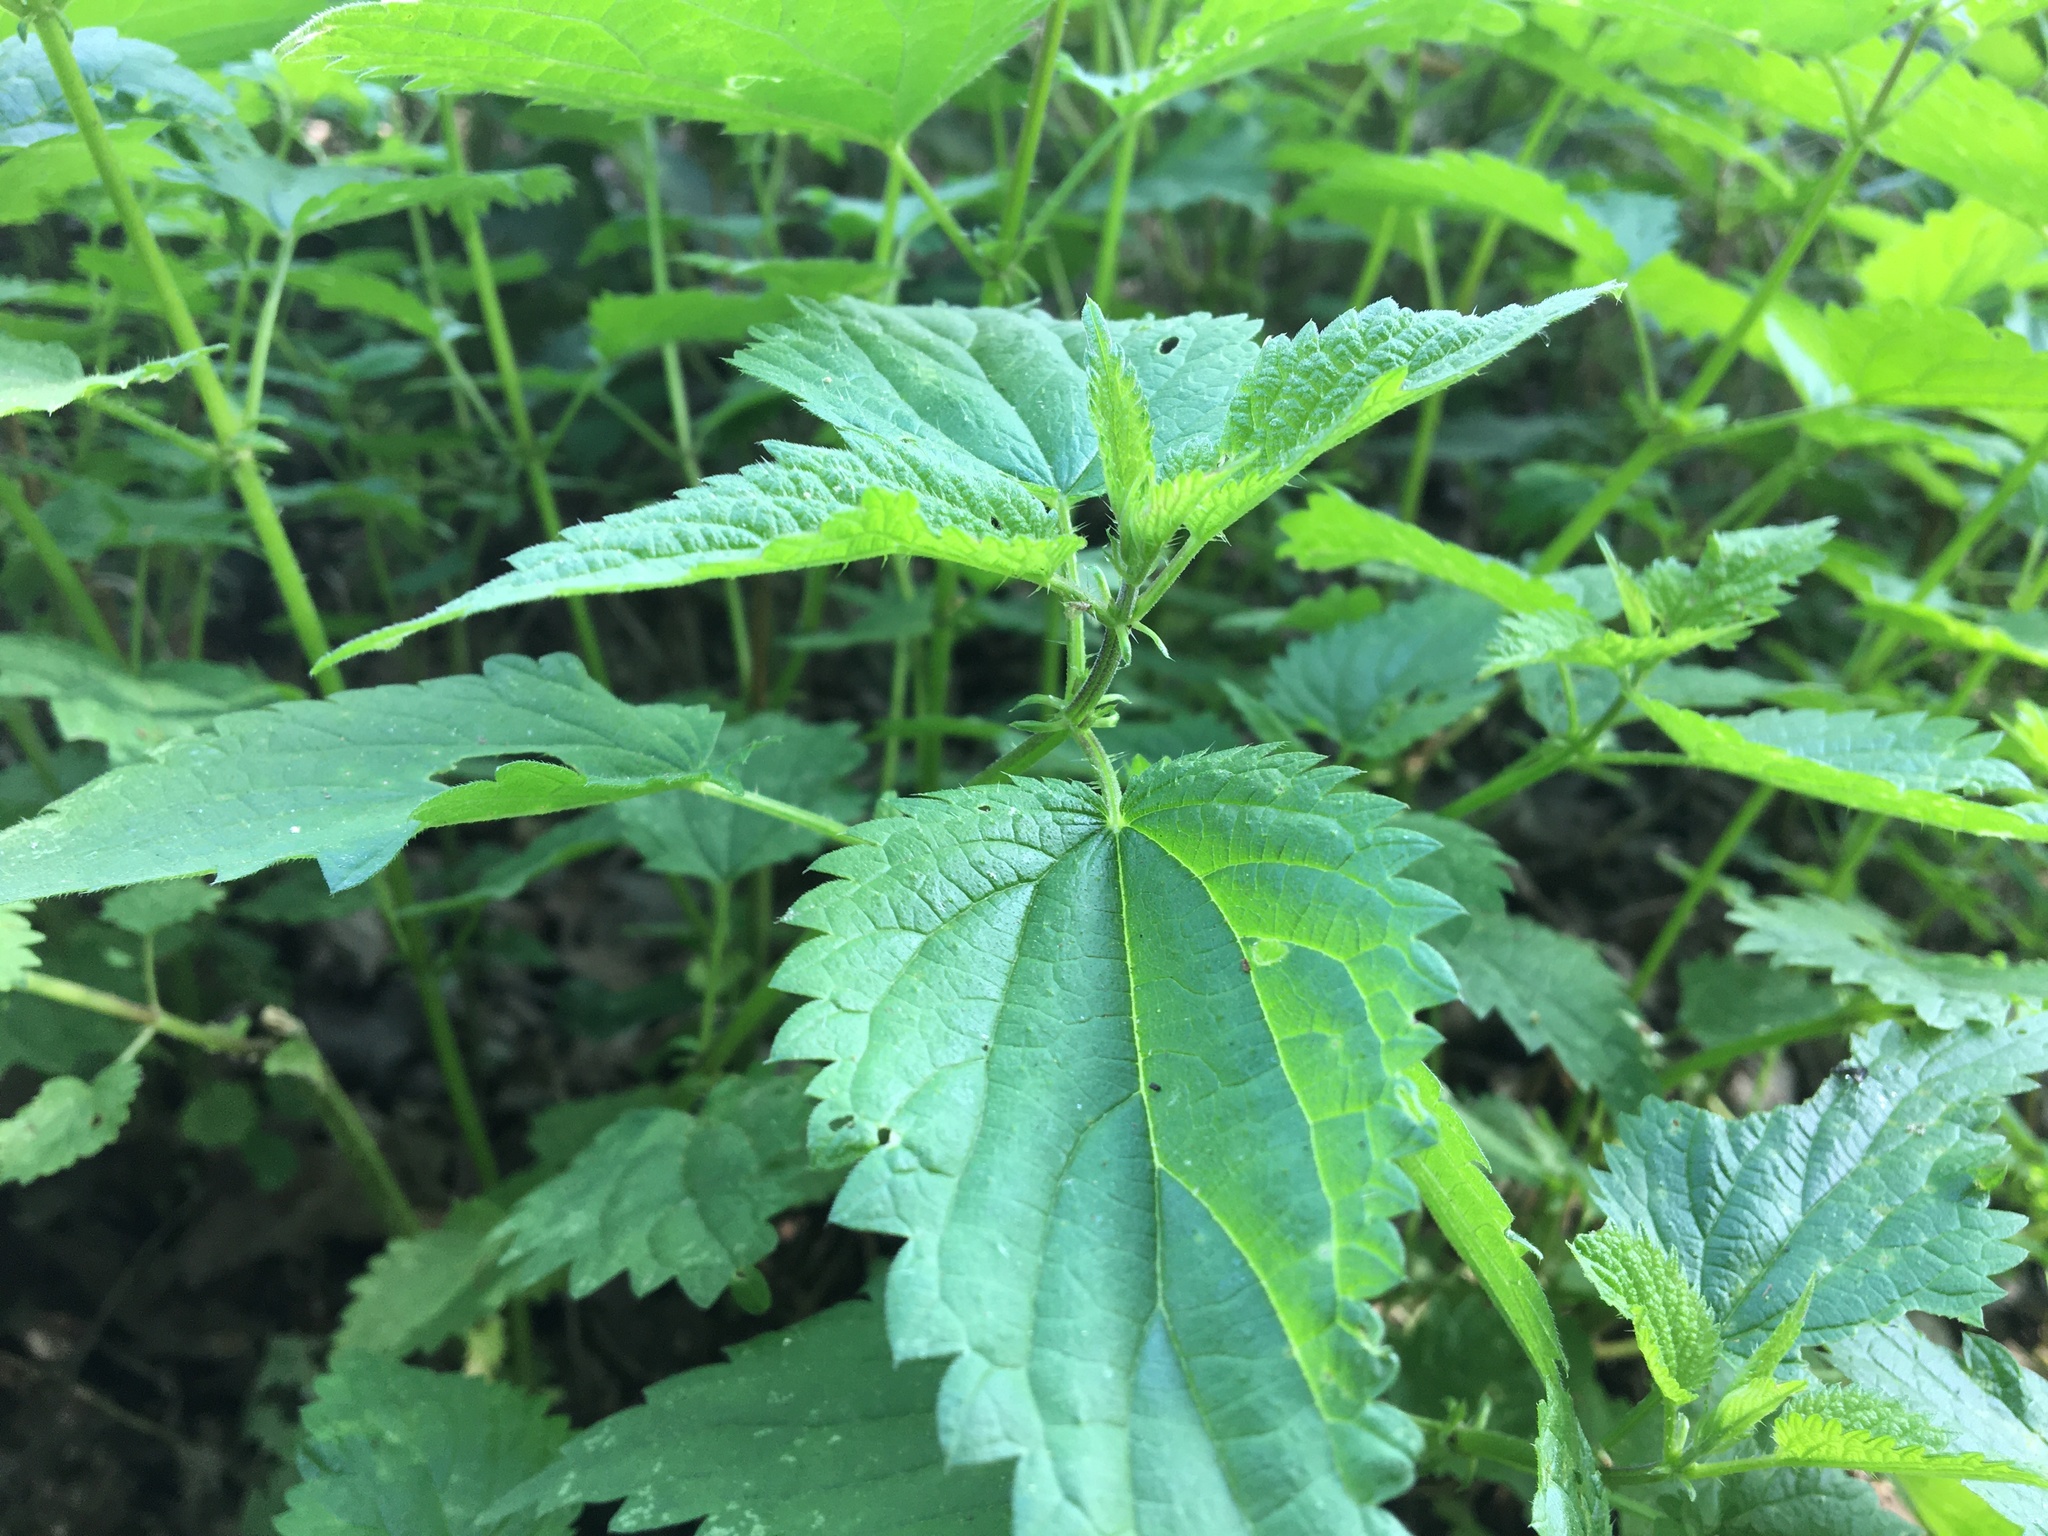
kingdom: Plantae
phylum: Tracheophyta
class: Magnoliopsida
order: Rosales
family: Urticaceae
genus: Urtica
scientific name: Urtica dioica
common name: Common nettle
